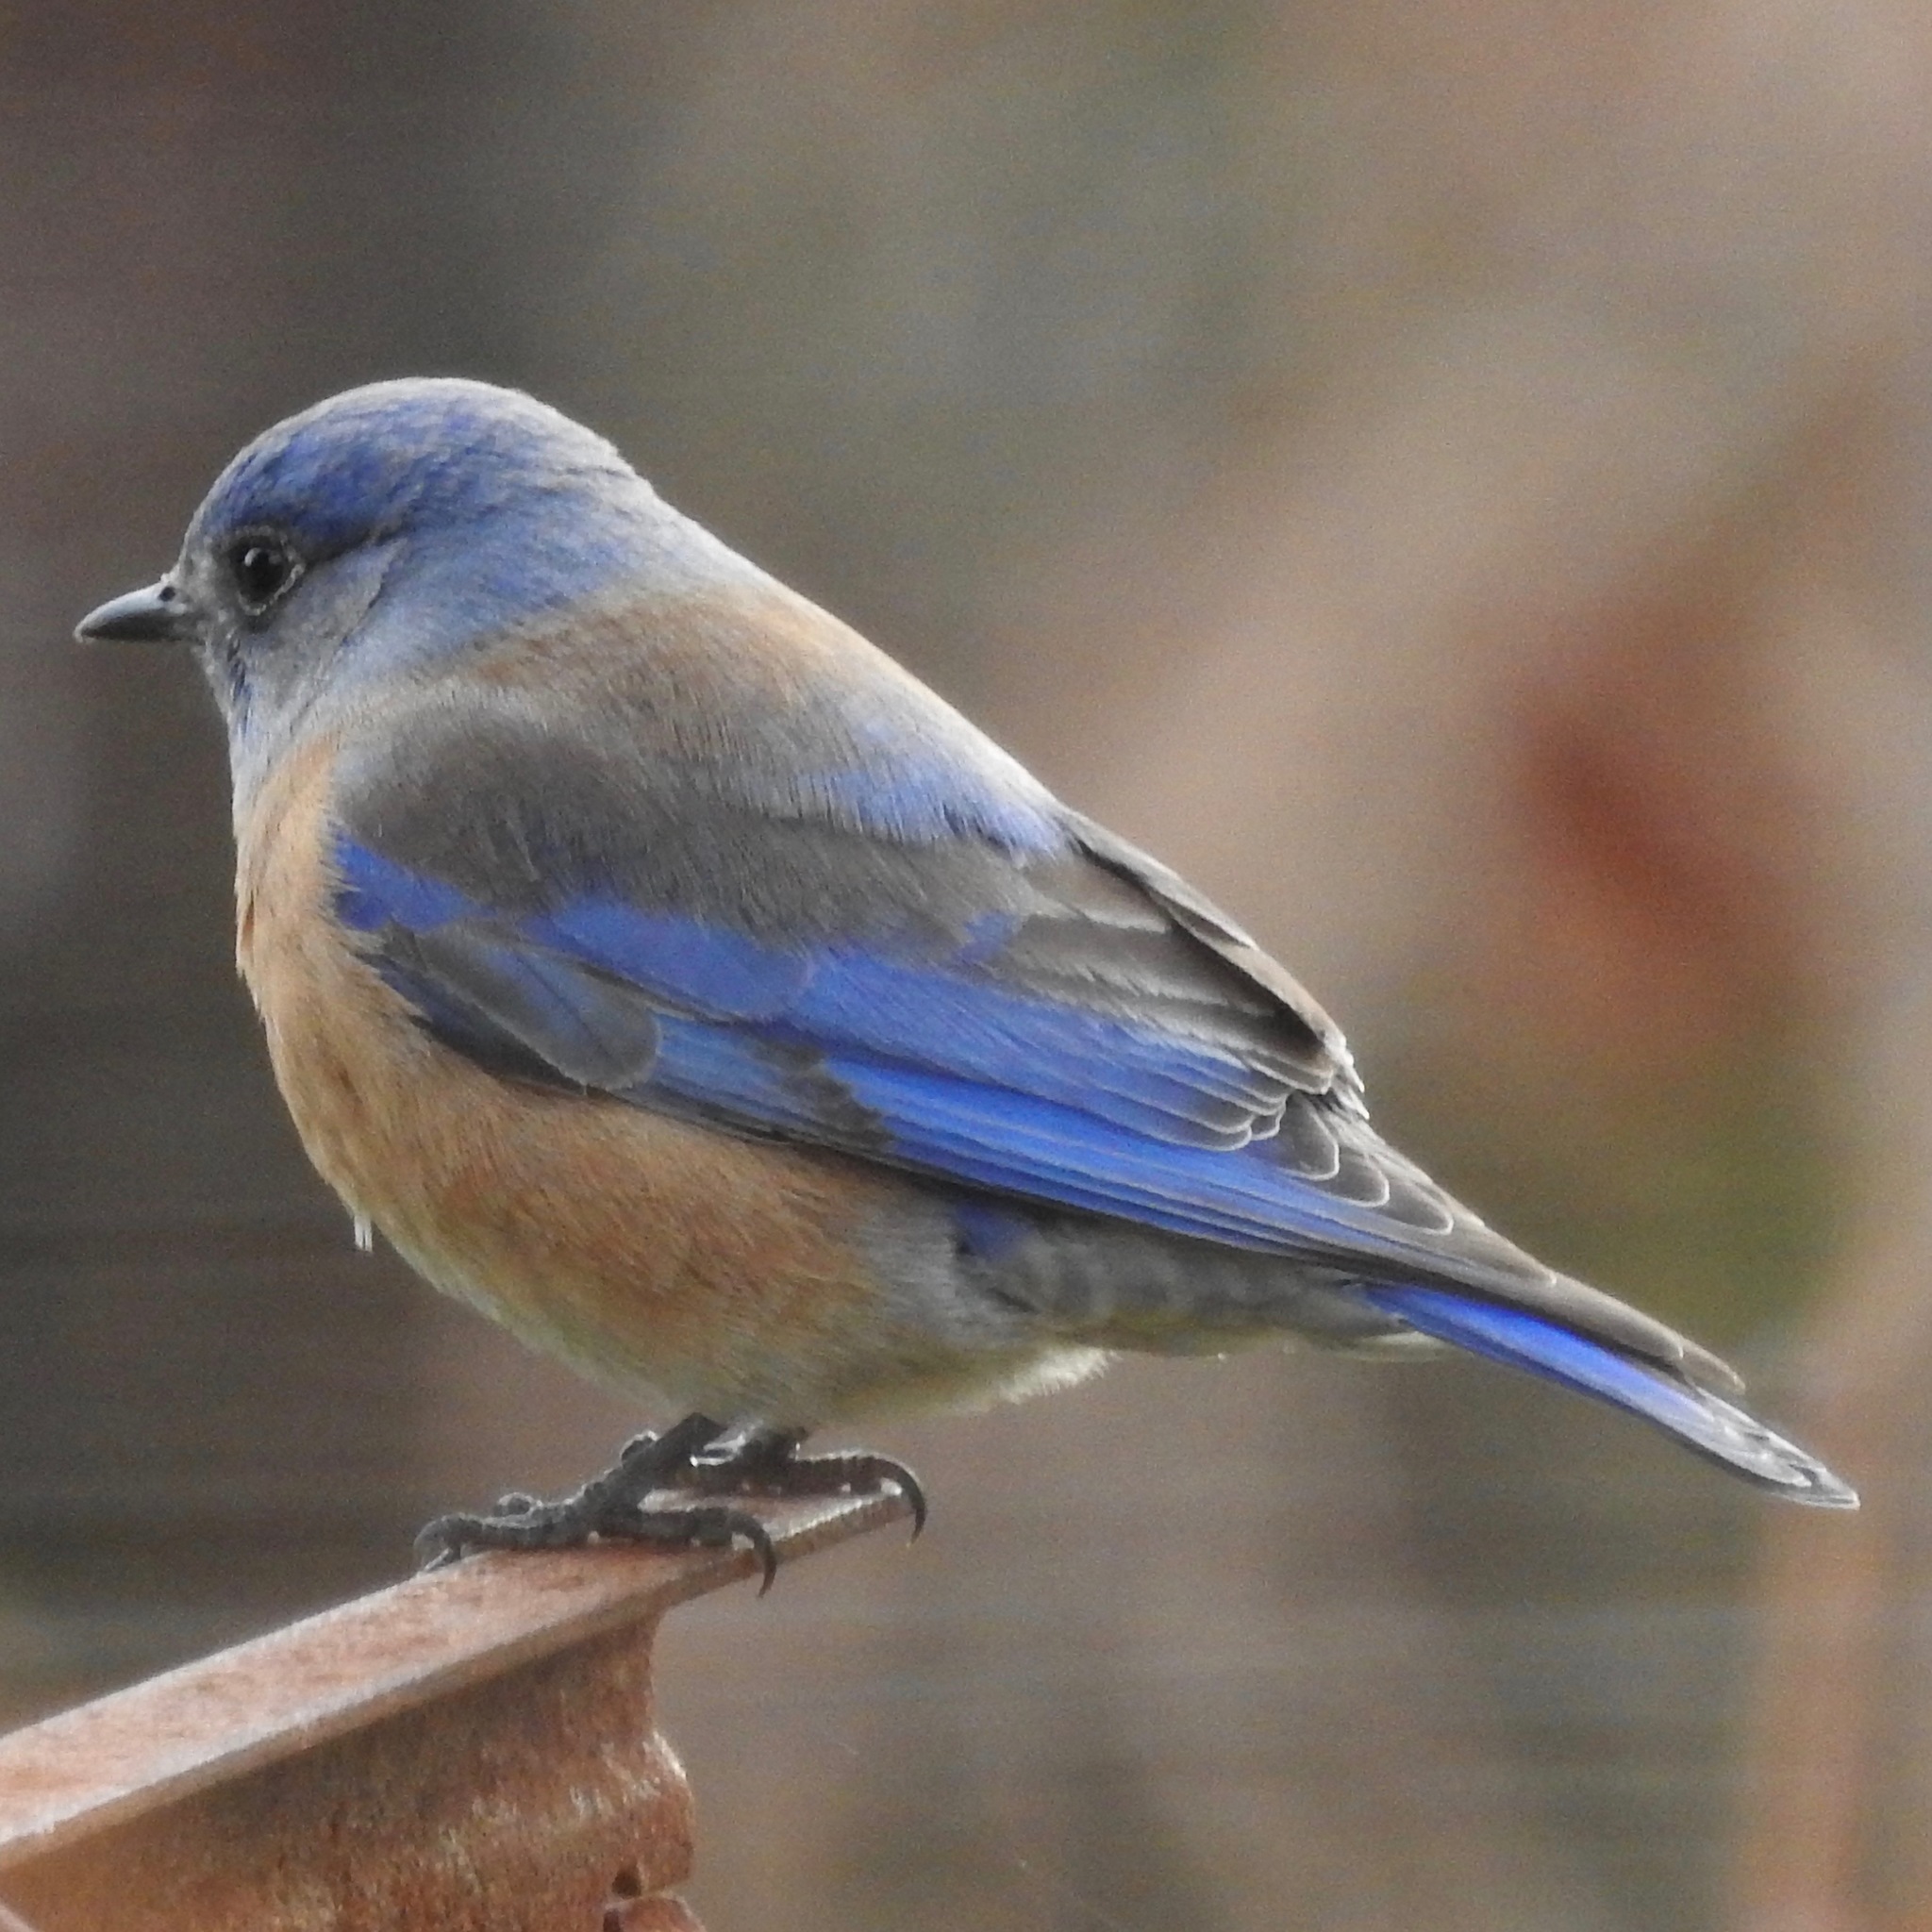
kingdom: Animalia
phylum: Chordata
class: Aves
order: Passeriformes
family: Turdidae
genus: Sialia
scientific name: Sialia mexicana
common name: Western bluebird
